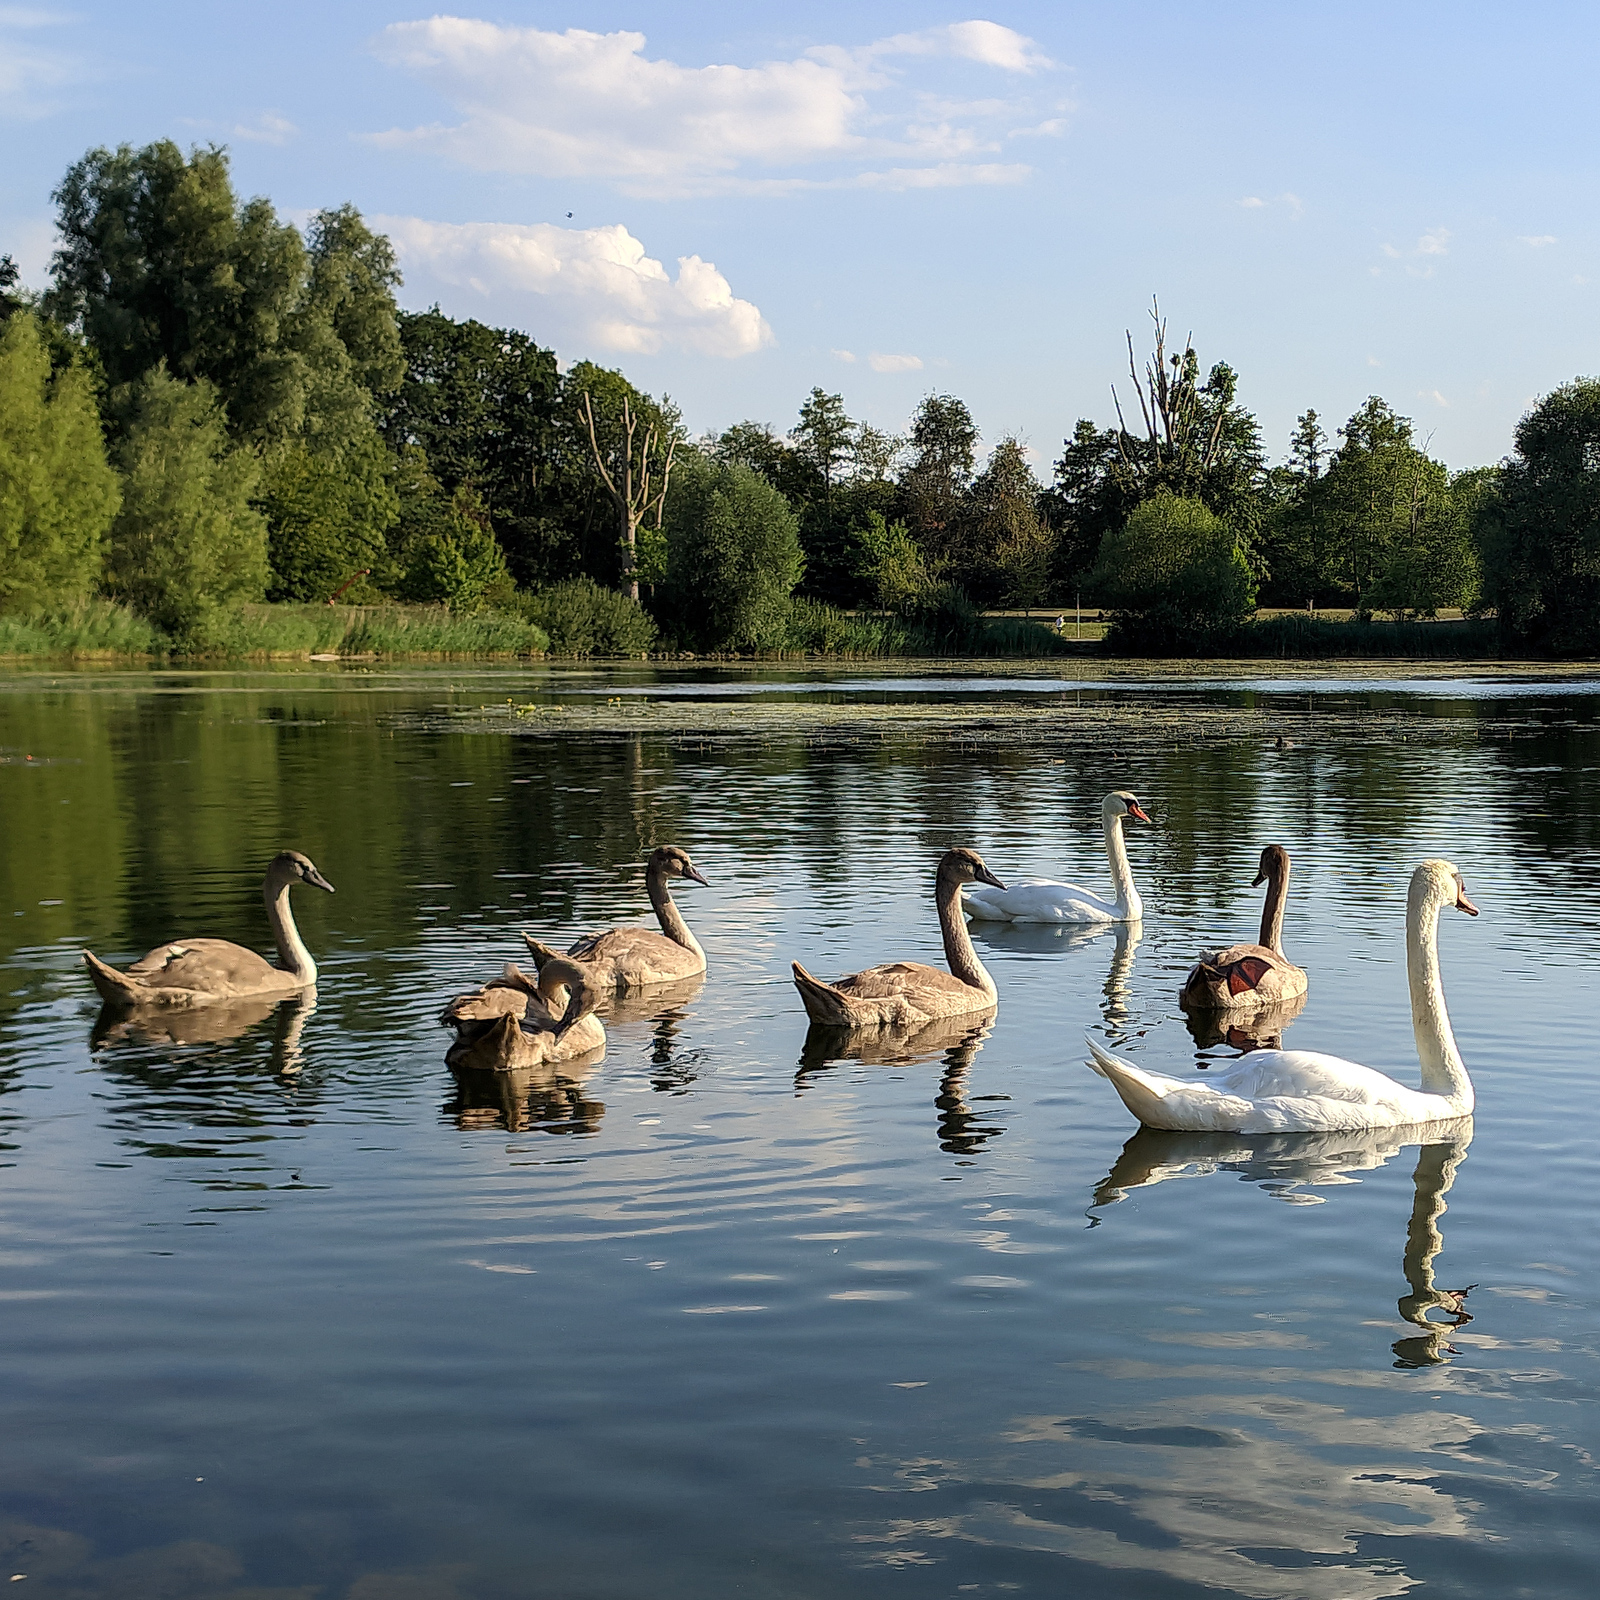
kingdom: Animalia
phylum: Chordata
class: Aves
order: Anseriformes
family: Anatidae
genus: Cygnus
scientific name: Cygnus olor
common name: Mute swan
